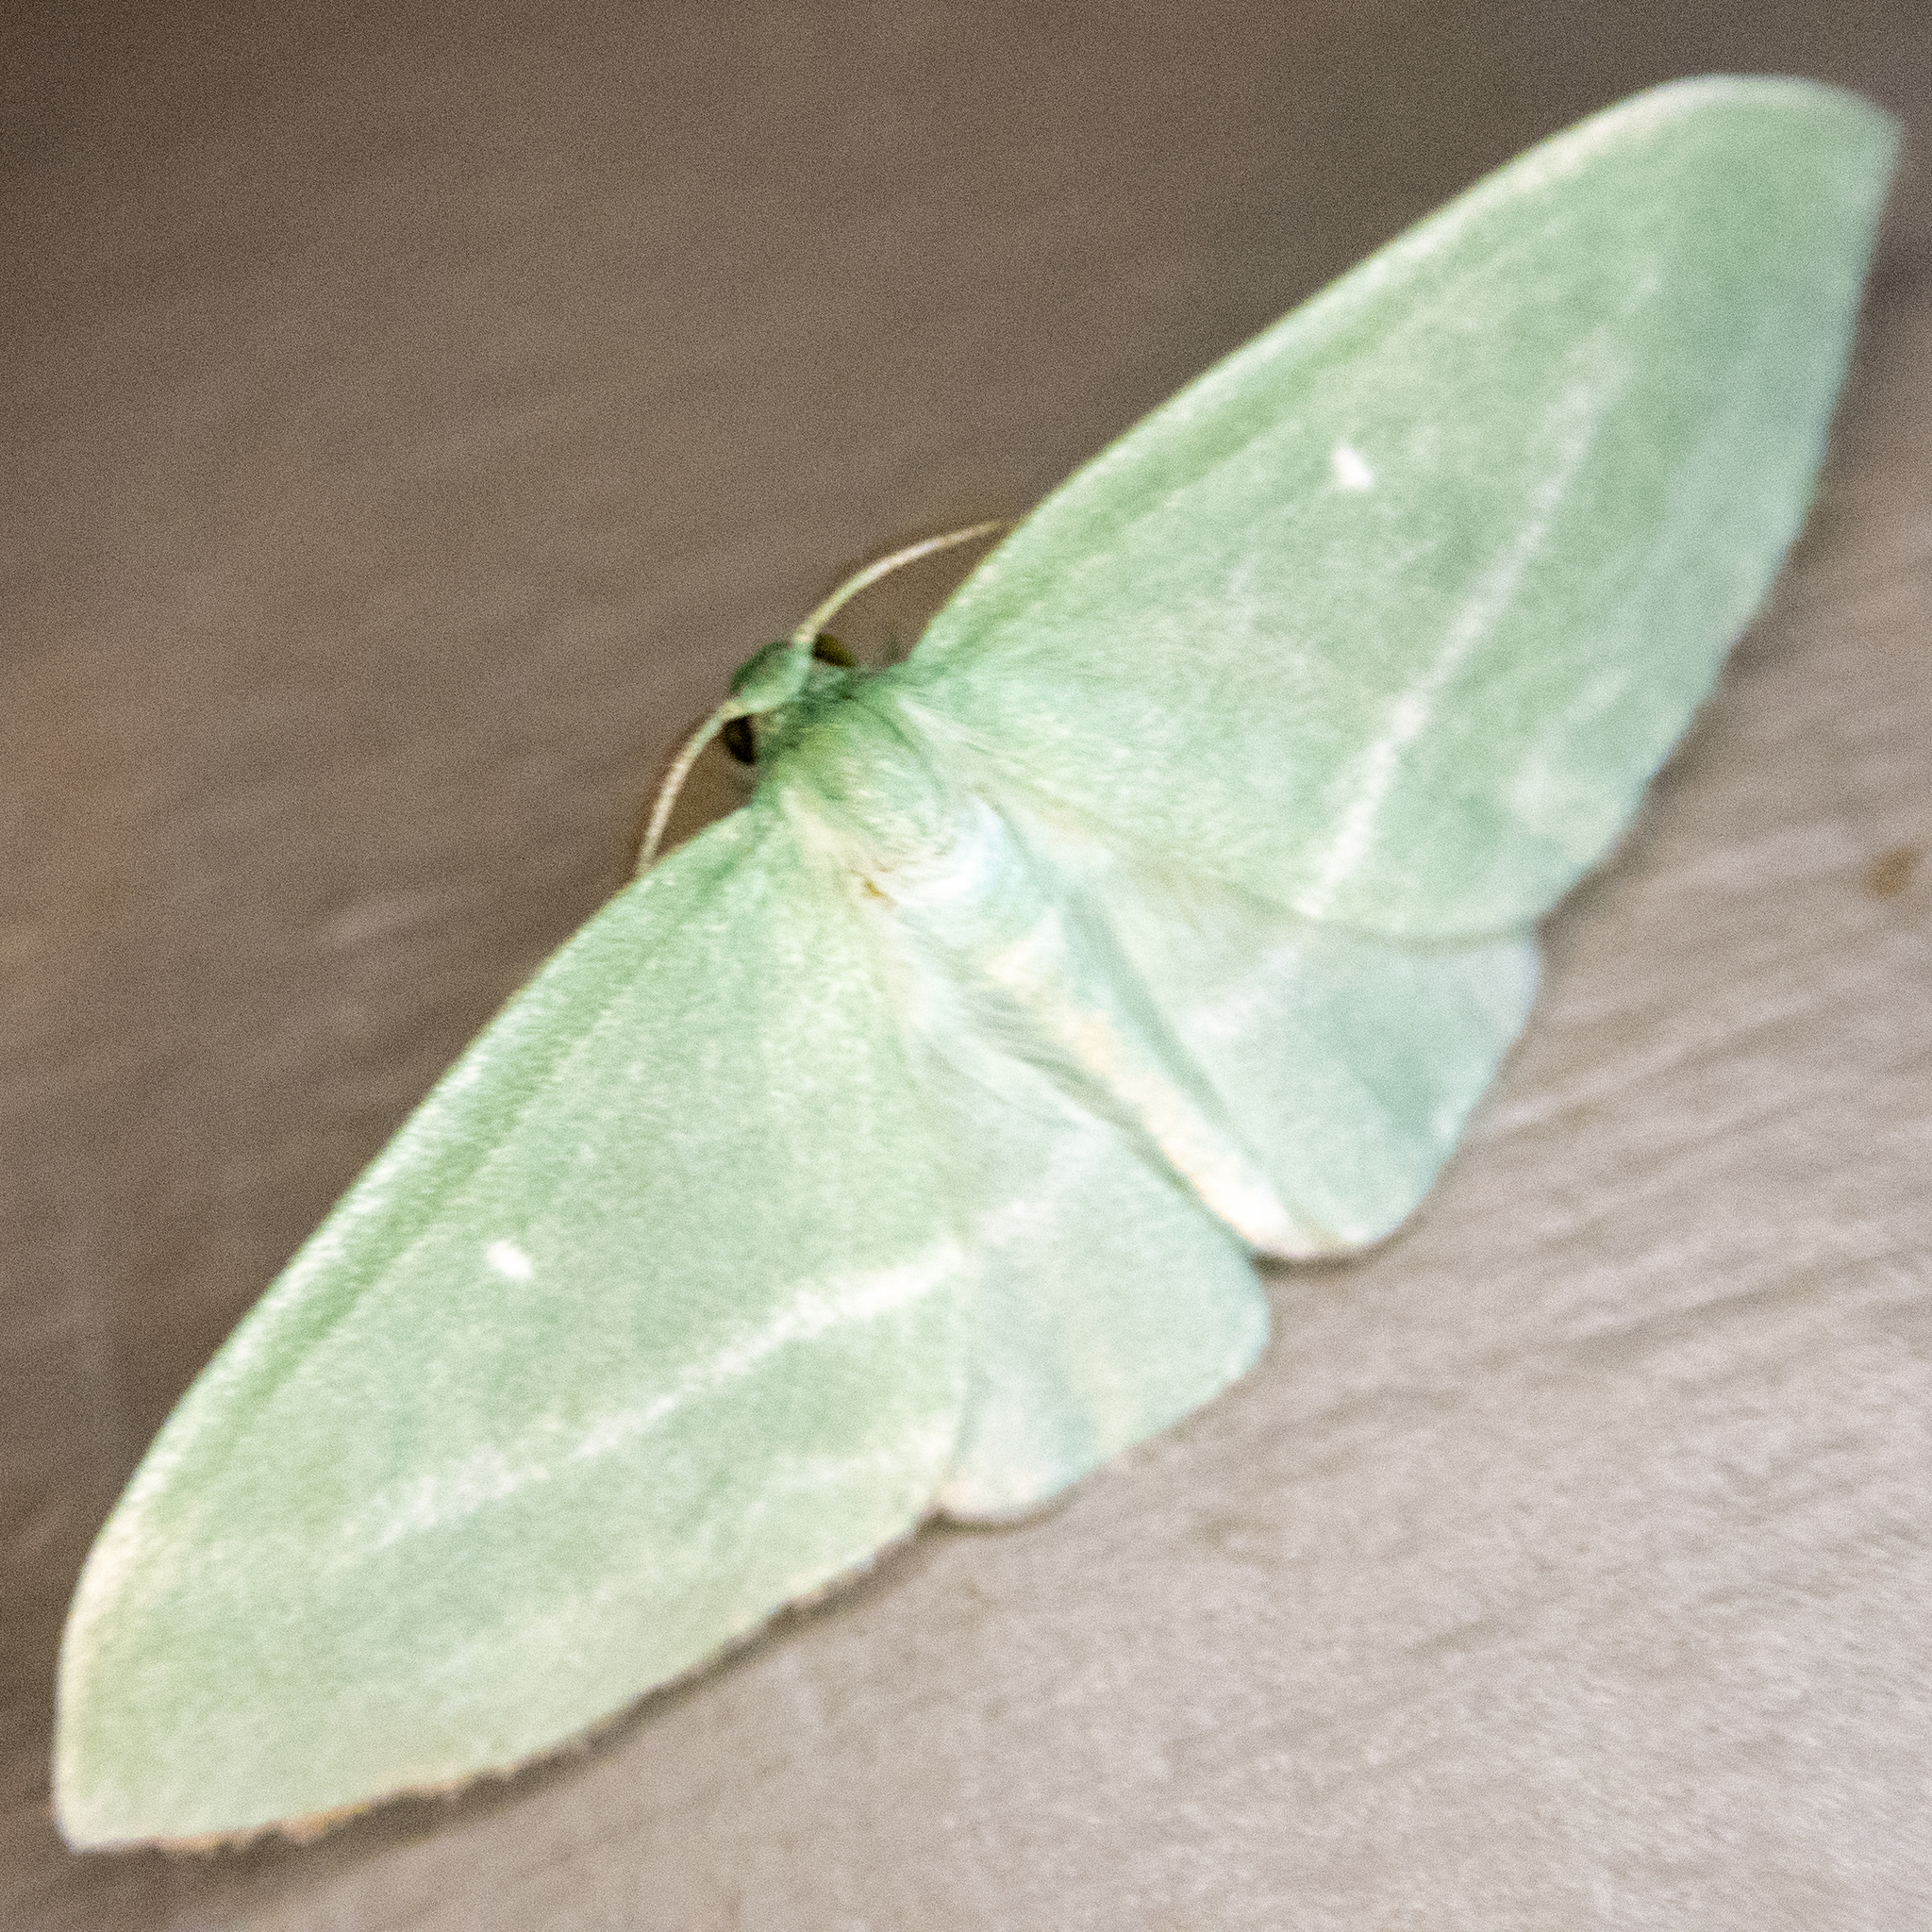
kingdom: Animalia
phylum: Arthropoda
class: Insecta
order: Lepidoptera
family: Geometridae
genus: Dyspteris
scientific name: Dyspteris abortivaria
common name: Bad-wing
